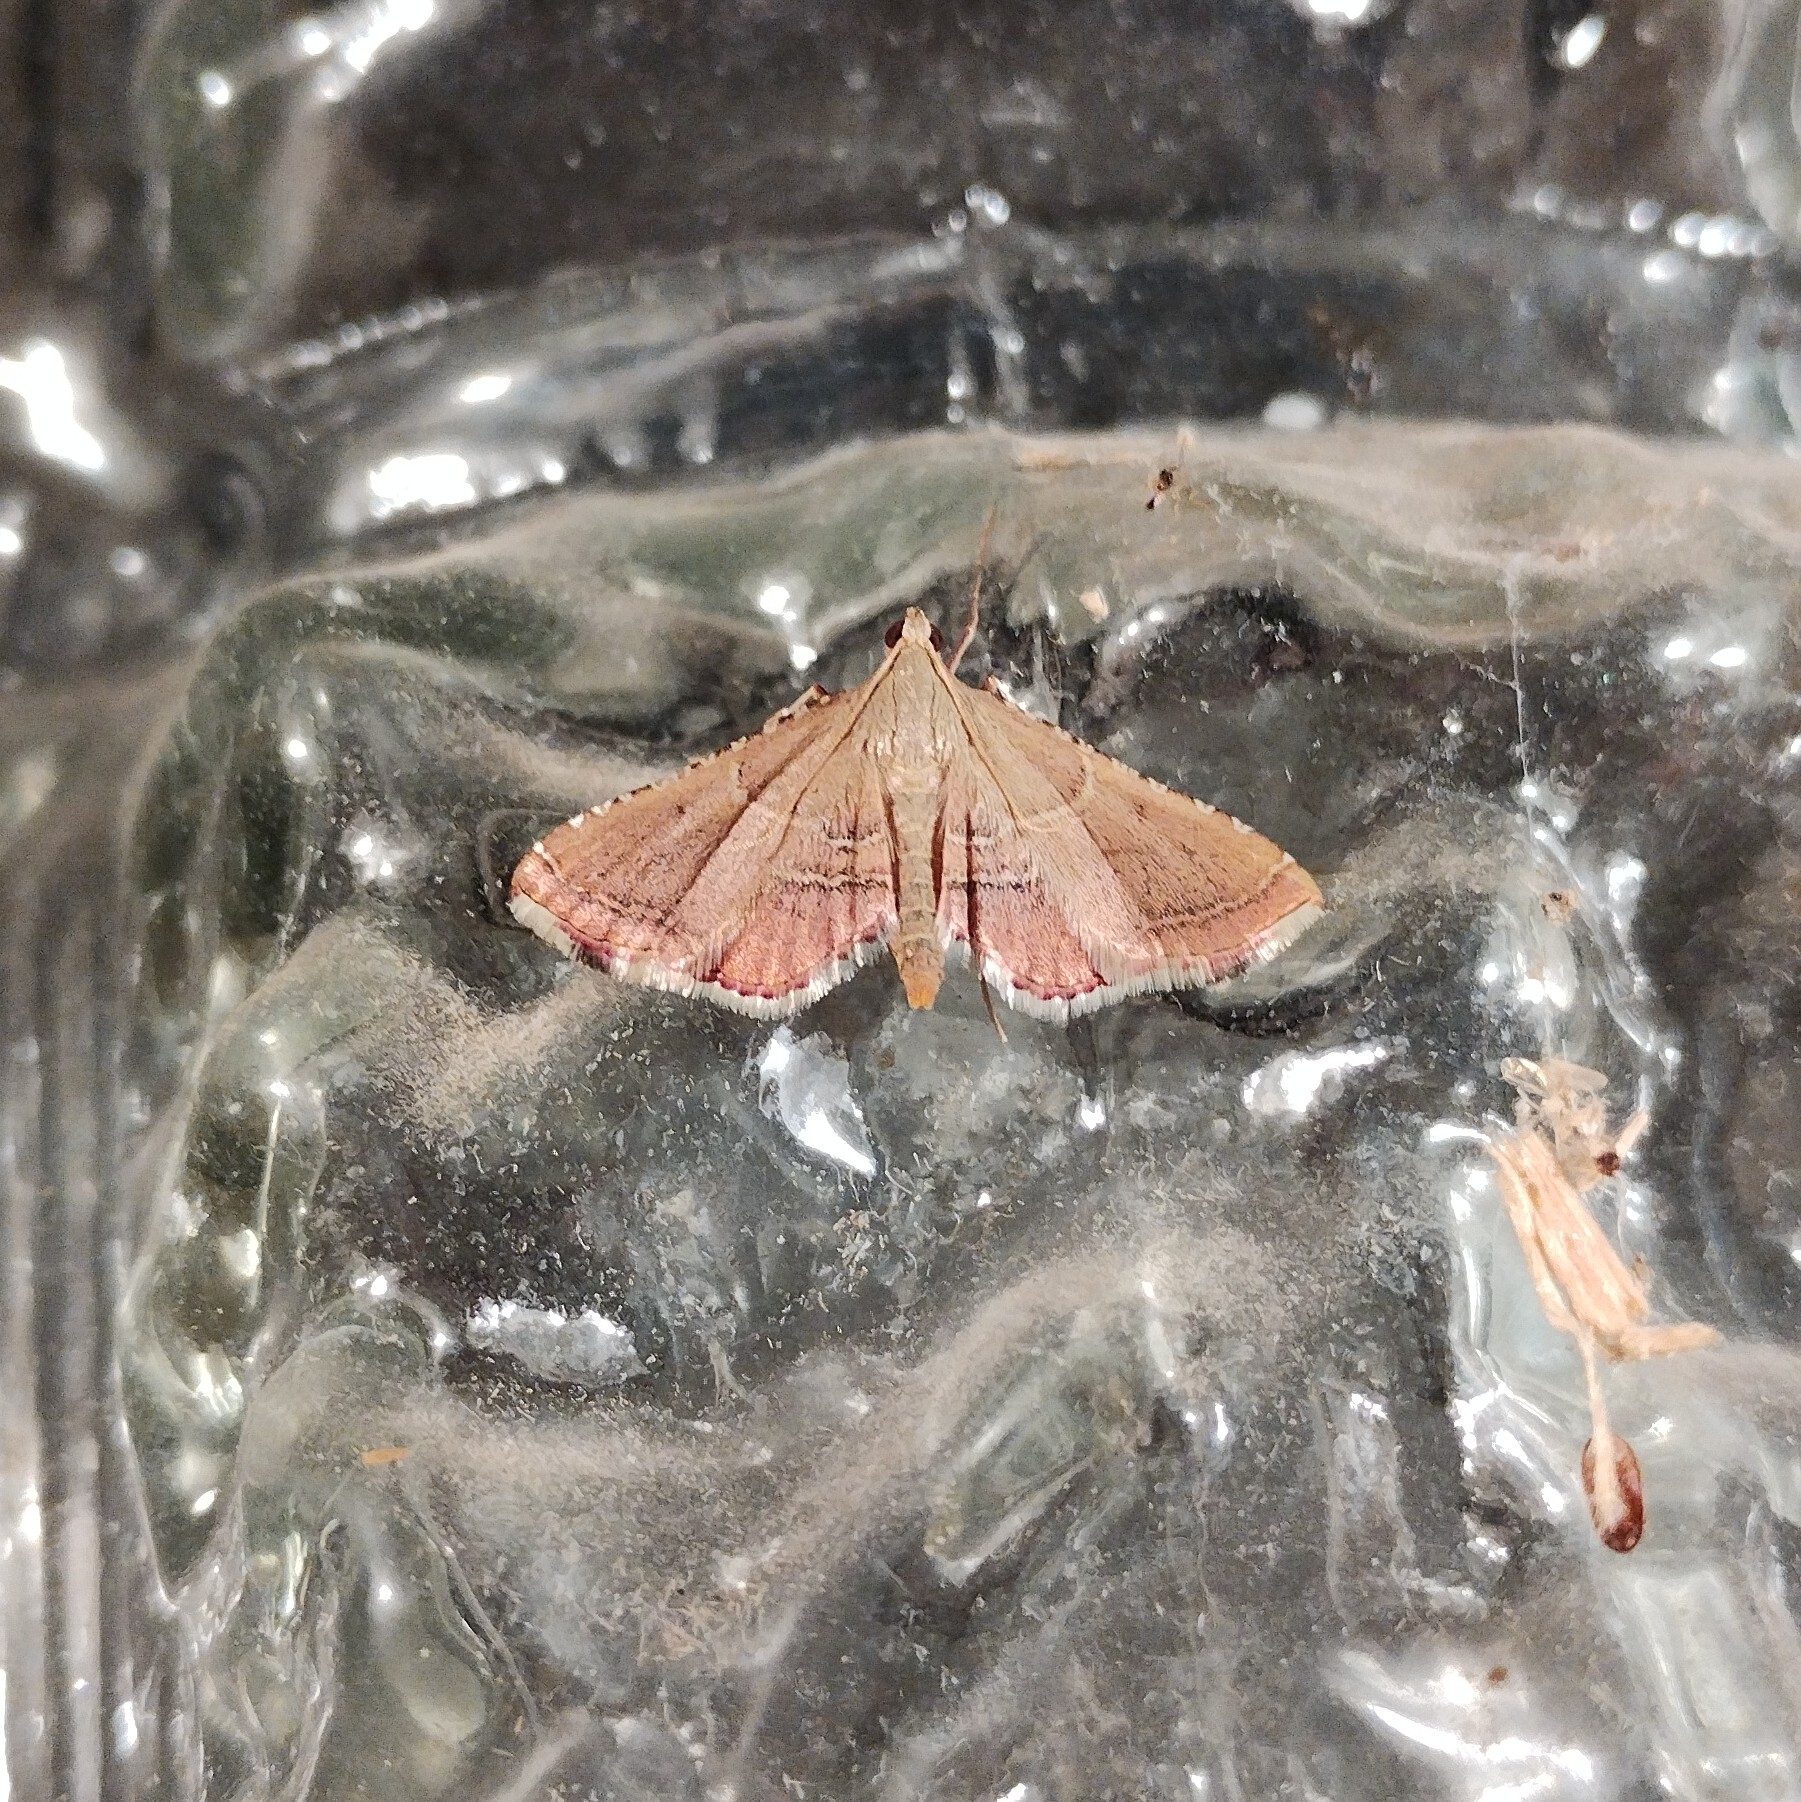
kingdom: Animalia
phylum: Arthropoda
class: Insecta
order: Lepidoptera
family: Pyralidae
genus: Endotricha
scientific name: Endotricha flammealis
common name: Rosy tabby
